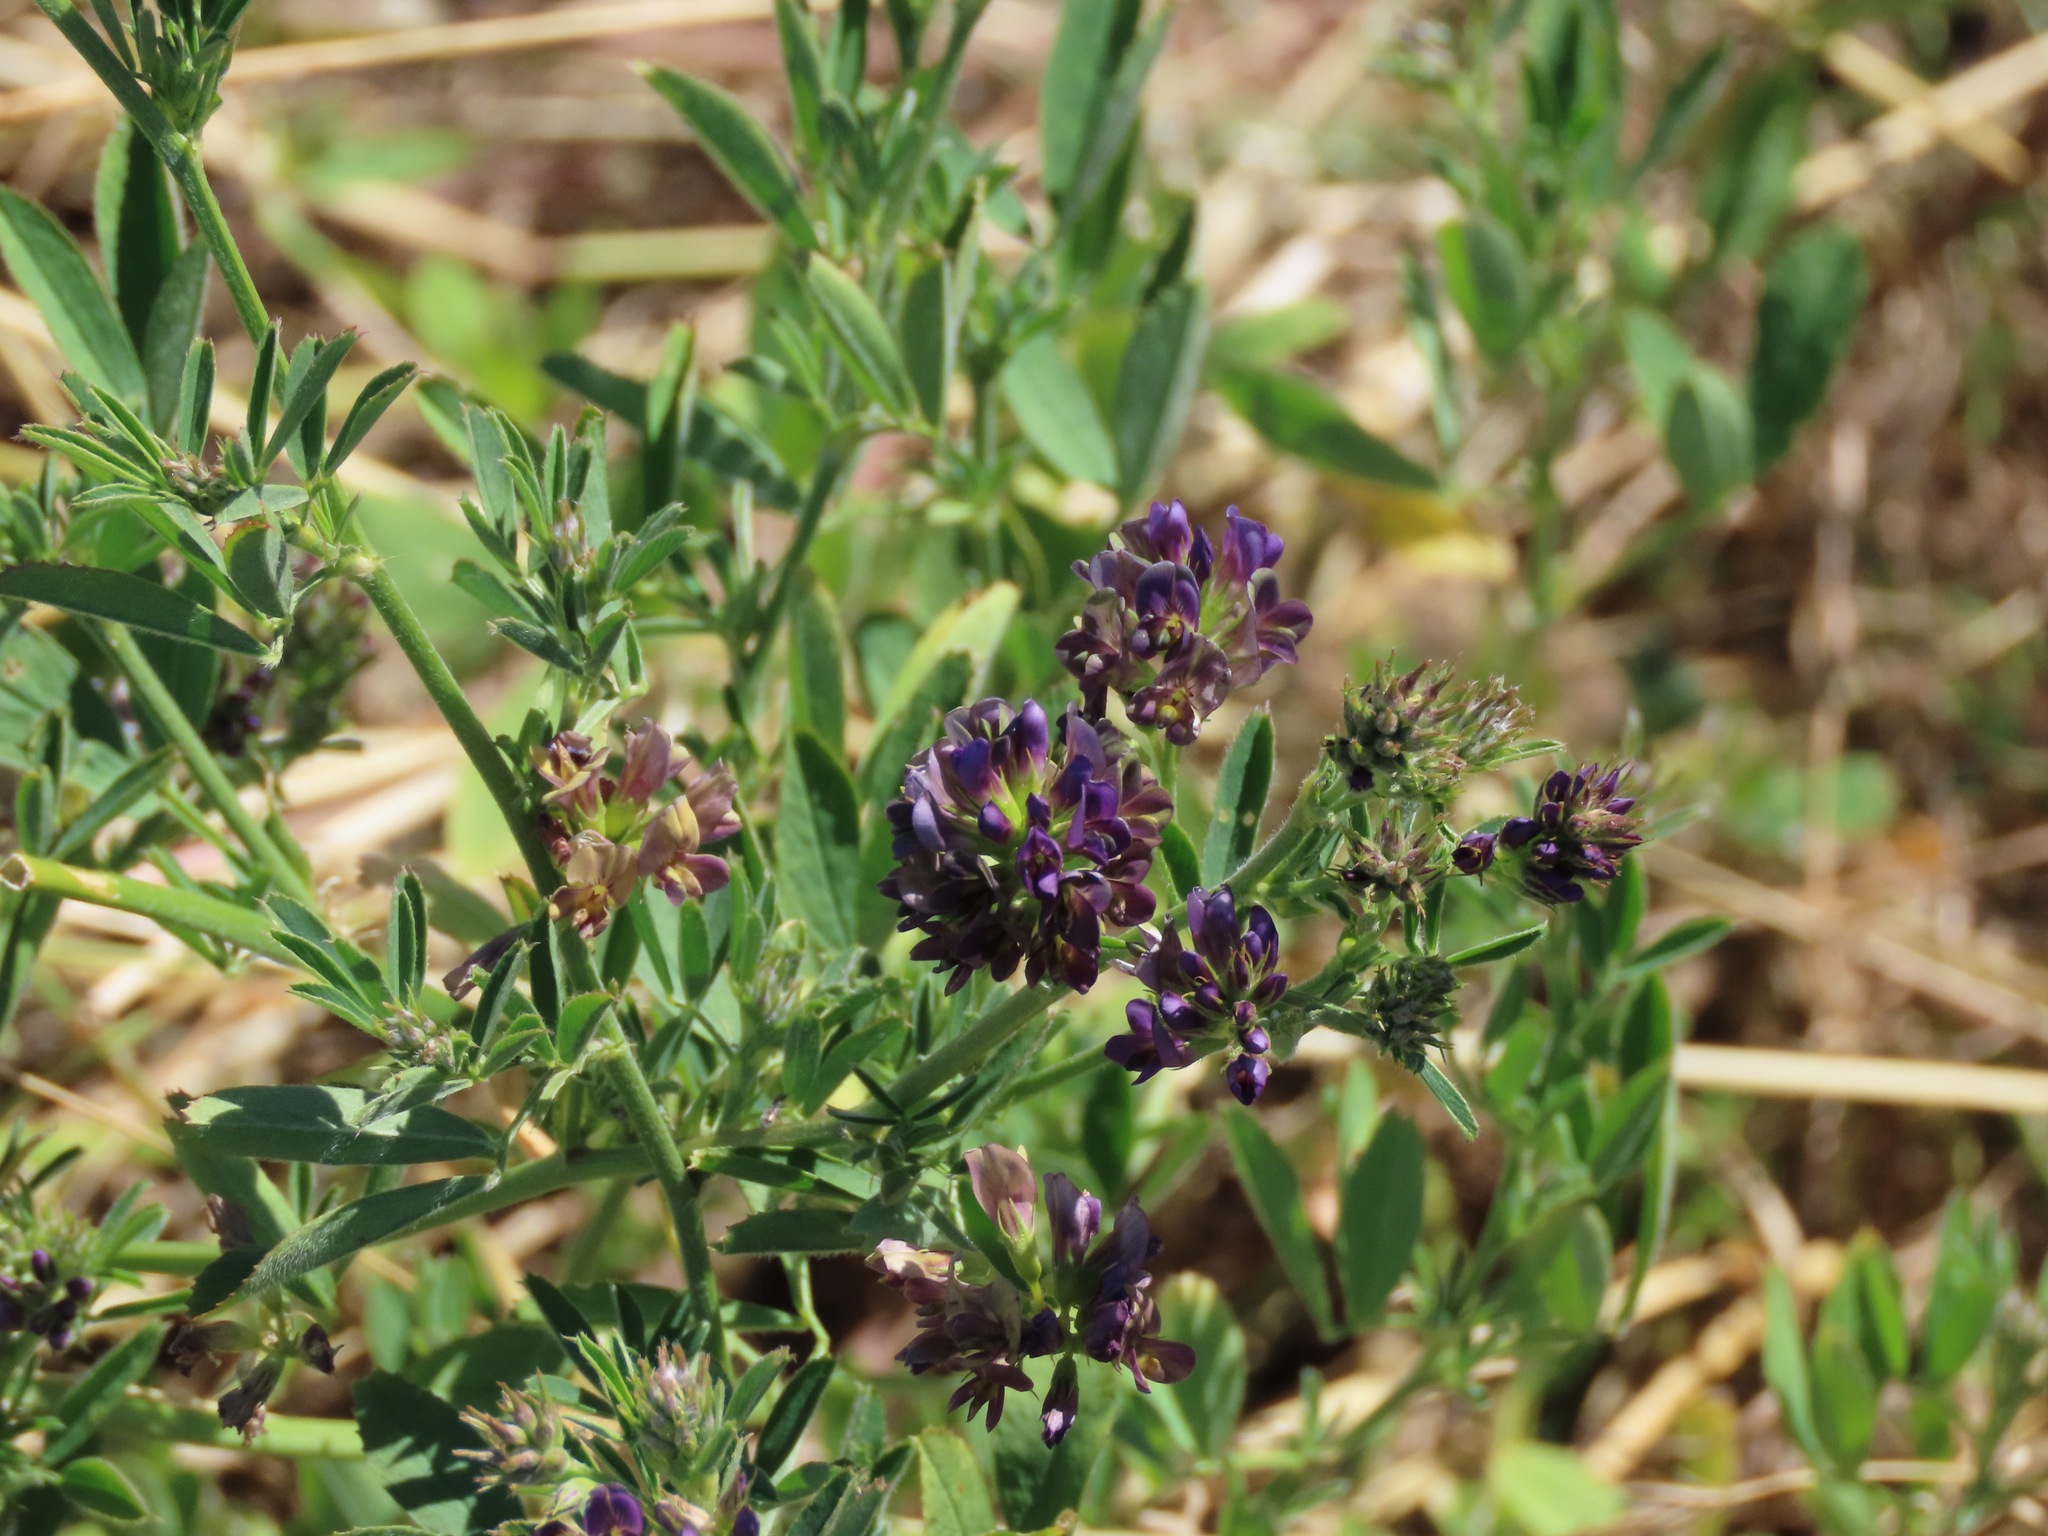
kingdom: Plantae
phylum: Tracheophyta
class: Magnoliopsida
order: Fabales
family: Fabaceae
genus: Medicago
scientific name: Medicago sativa
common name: Alfalfa
